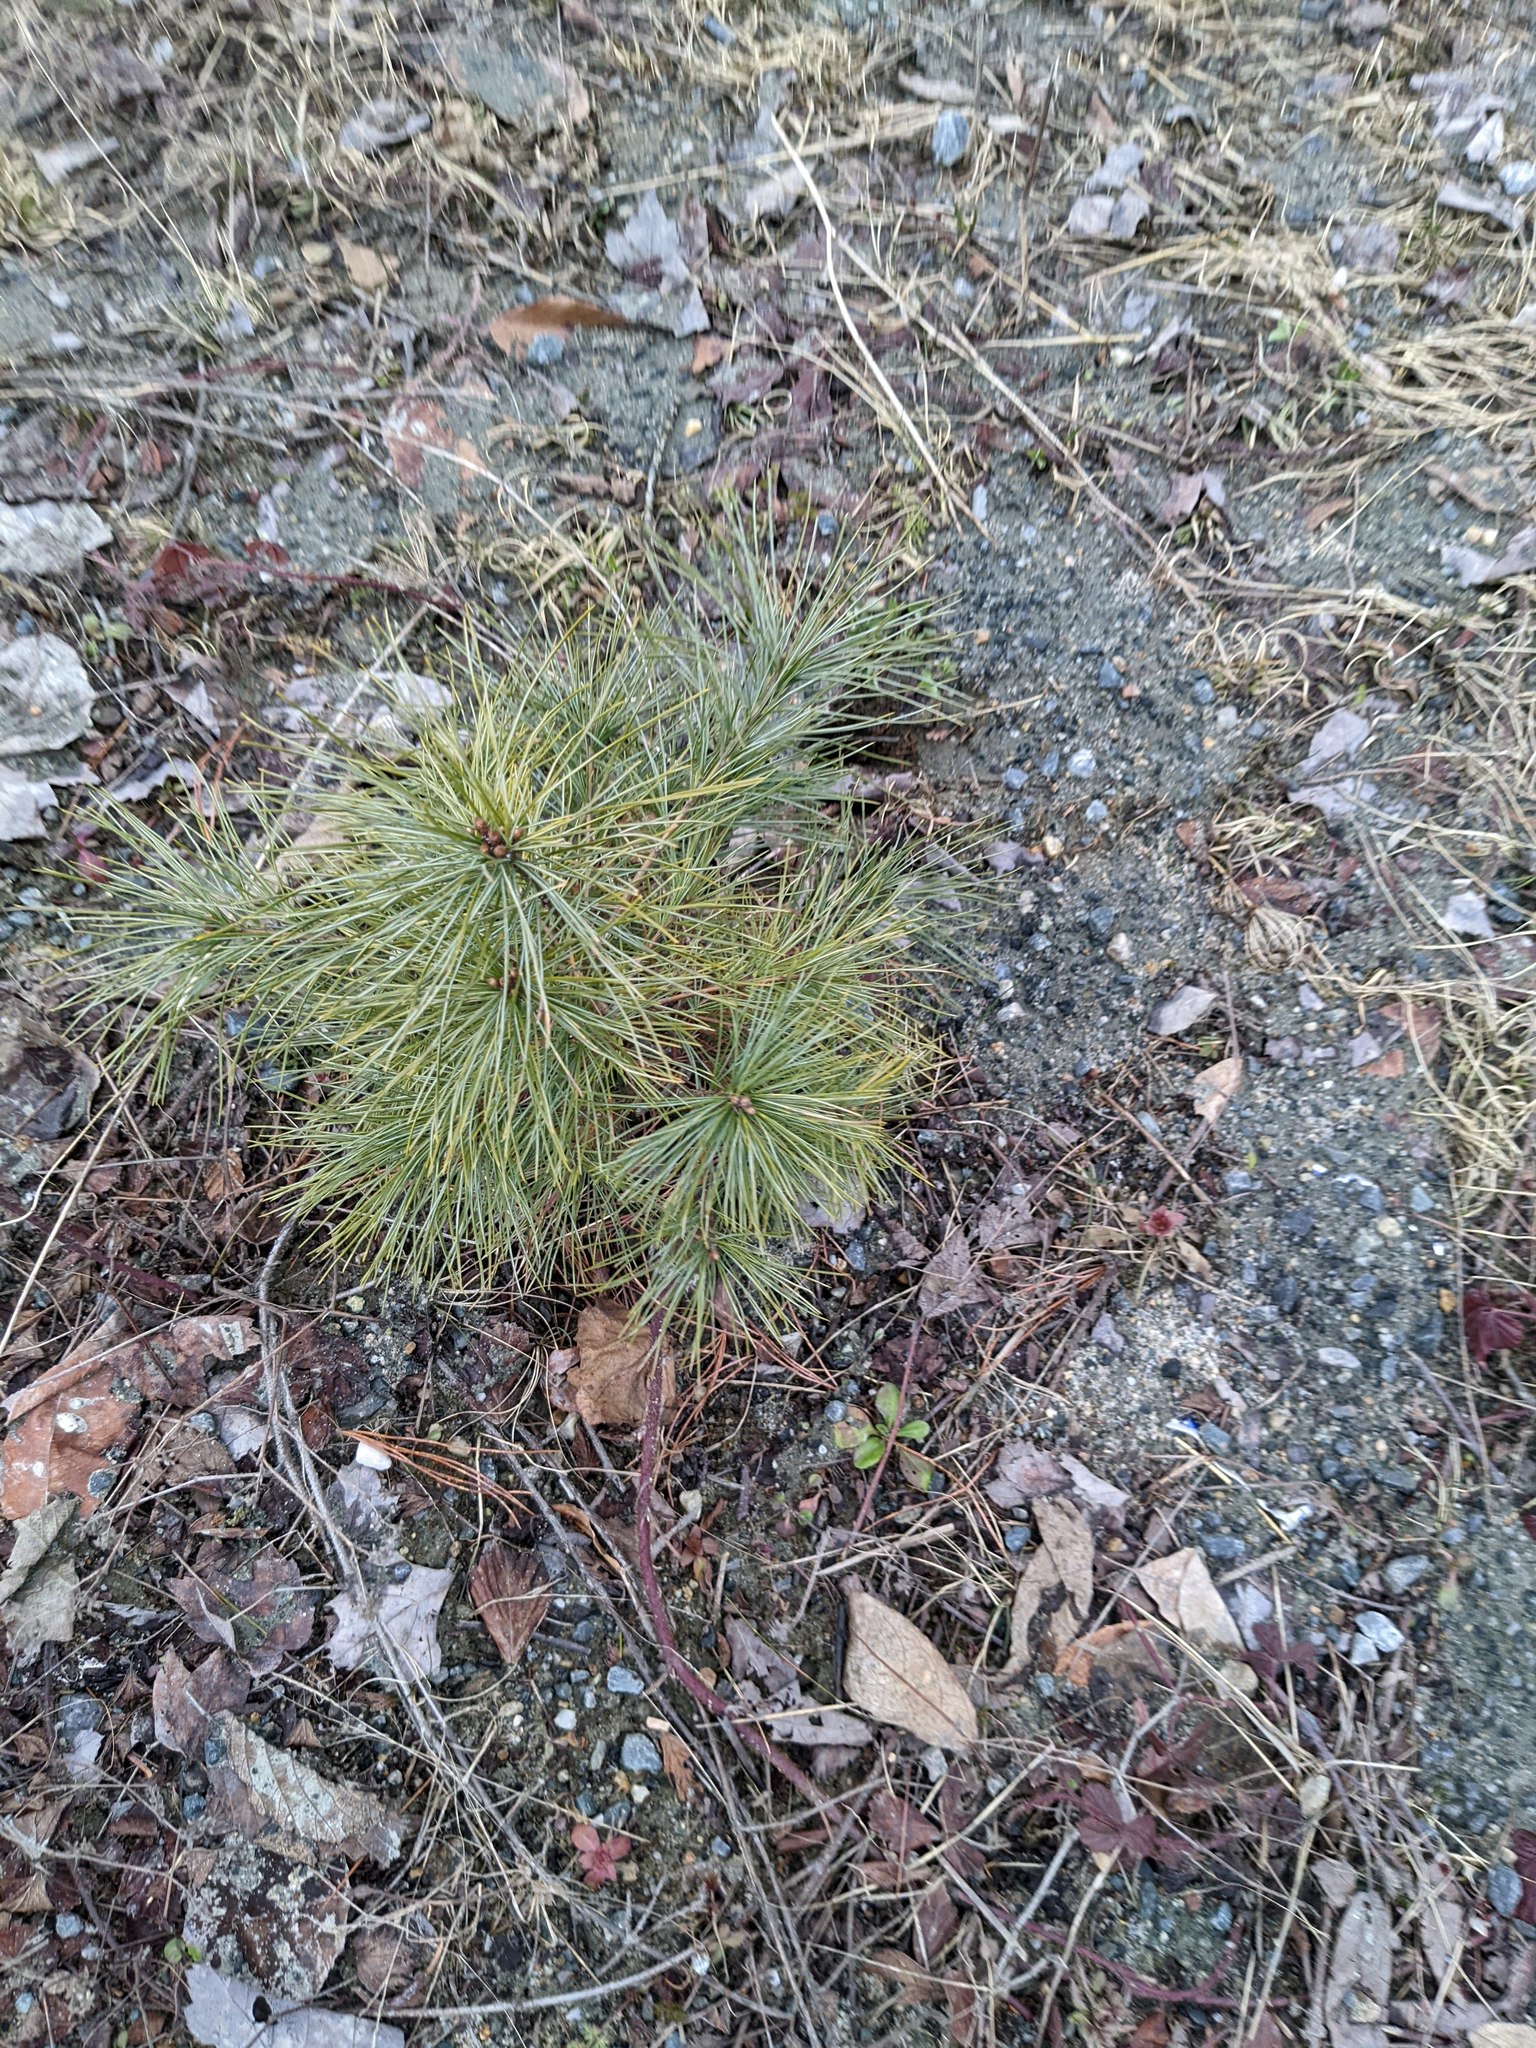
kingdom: Plantae
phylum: Tracheophyta
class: Pinopsida
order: Pinales
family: Pinaceae
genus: Pinus
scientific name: Pinus strobus
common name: Weymouth pine
